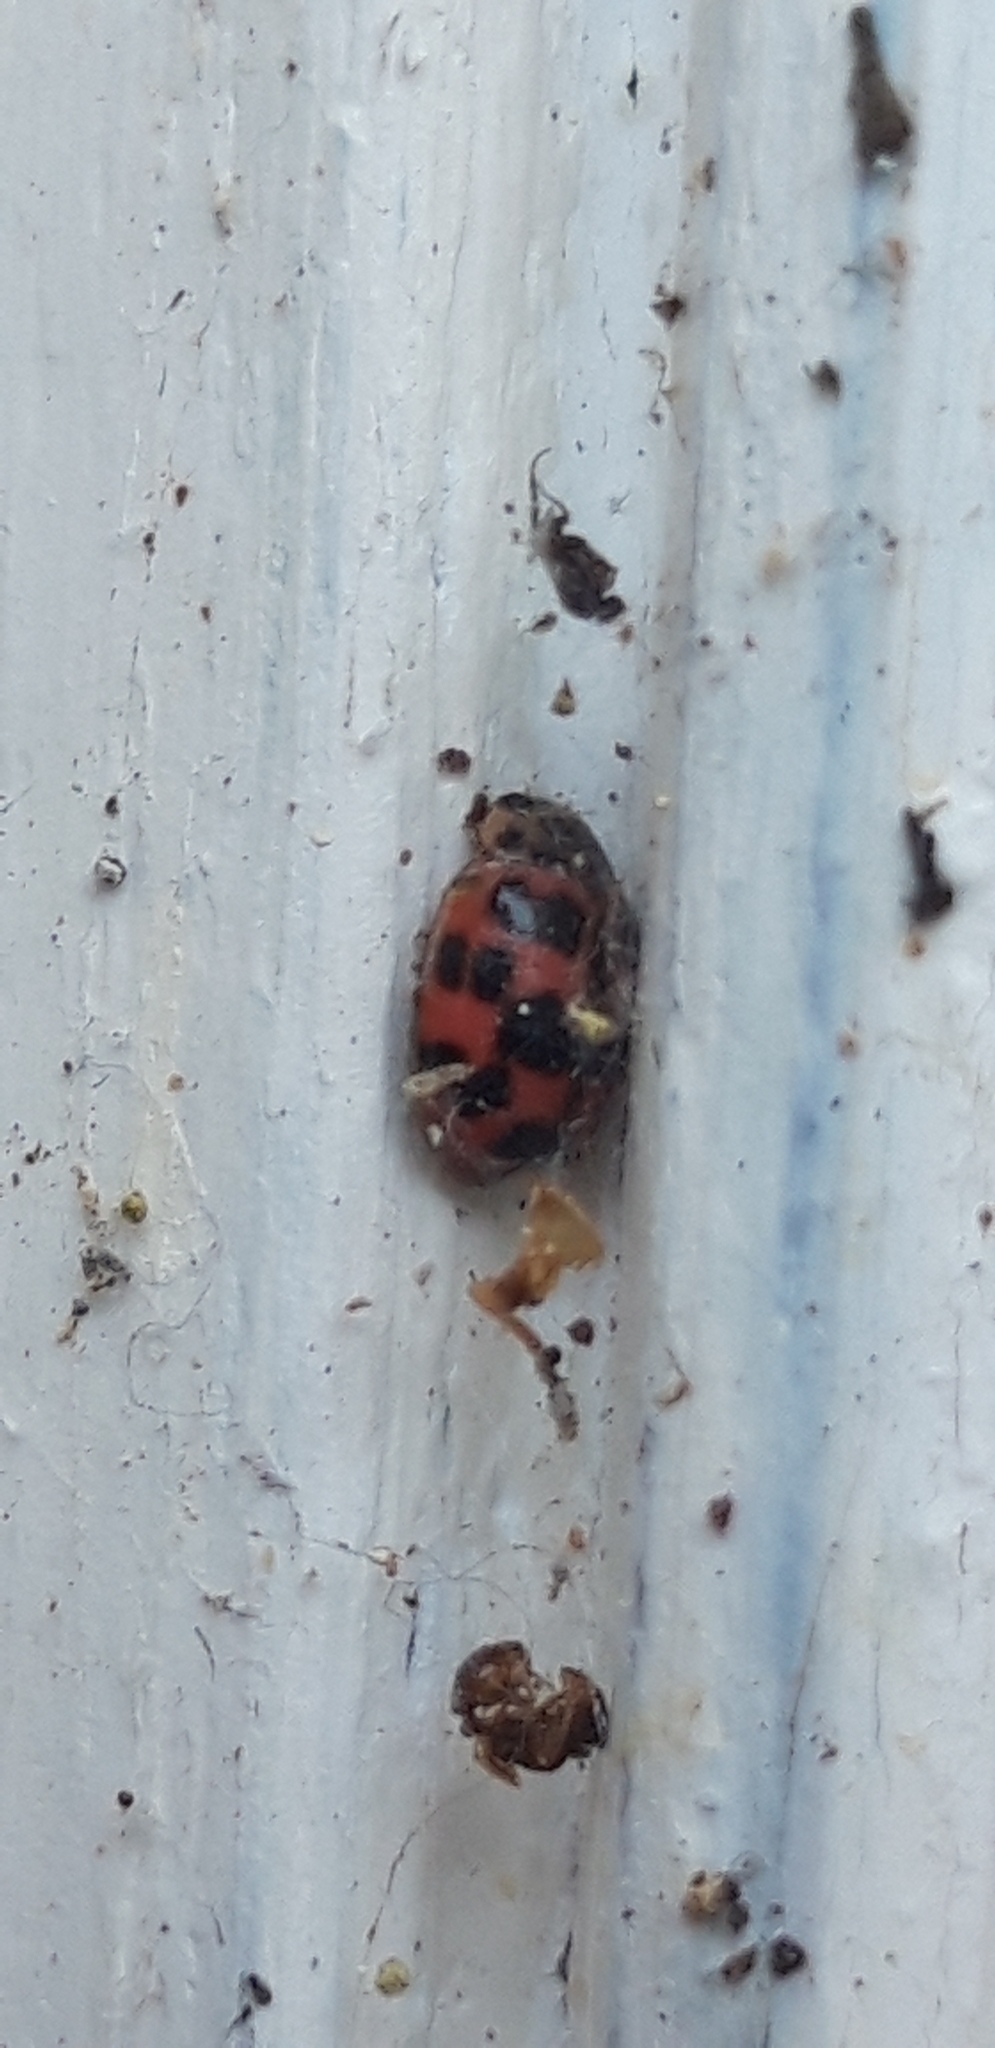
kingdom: Animalia
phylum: Arthropoda
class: Insecta
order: Coleoptera
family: Coccinellidae
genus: Oenopia
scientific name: Oenopia conglobata
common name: Ladybird beetle
